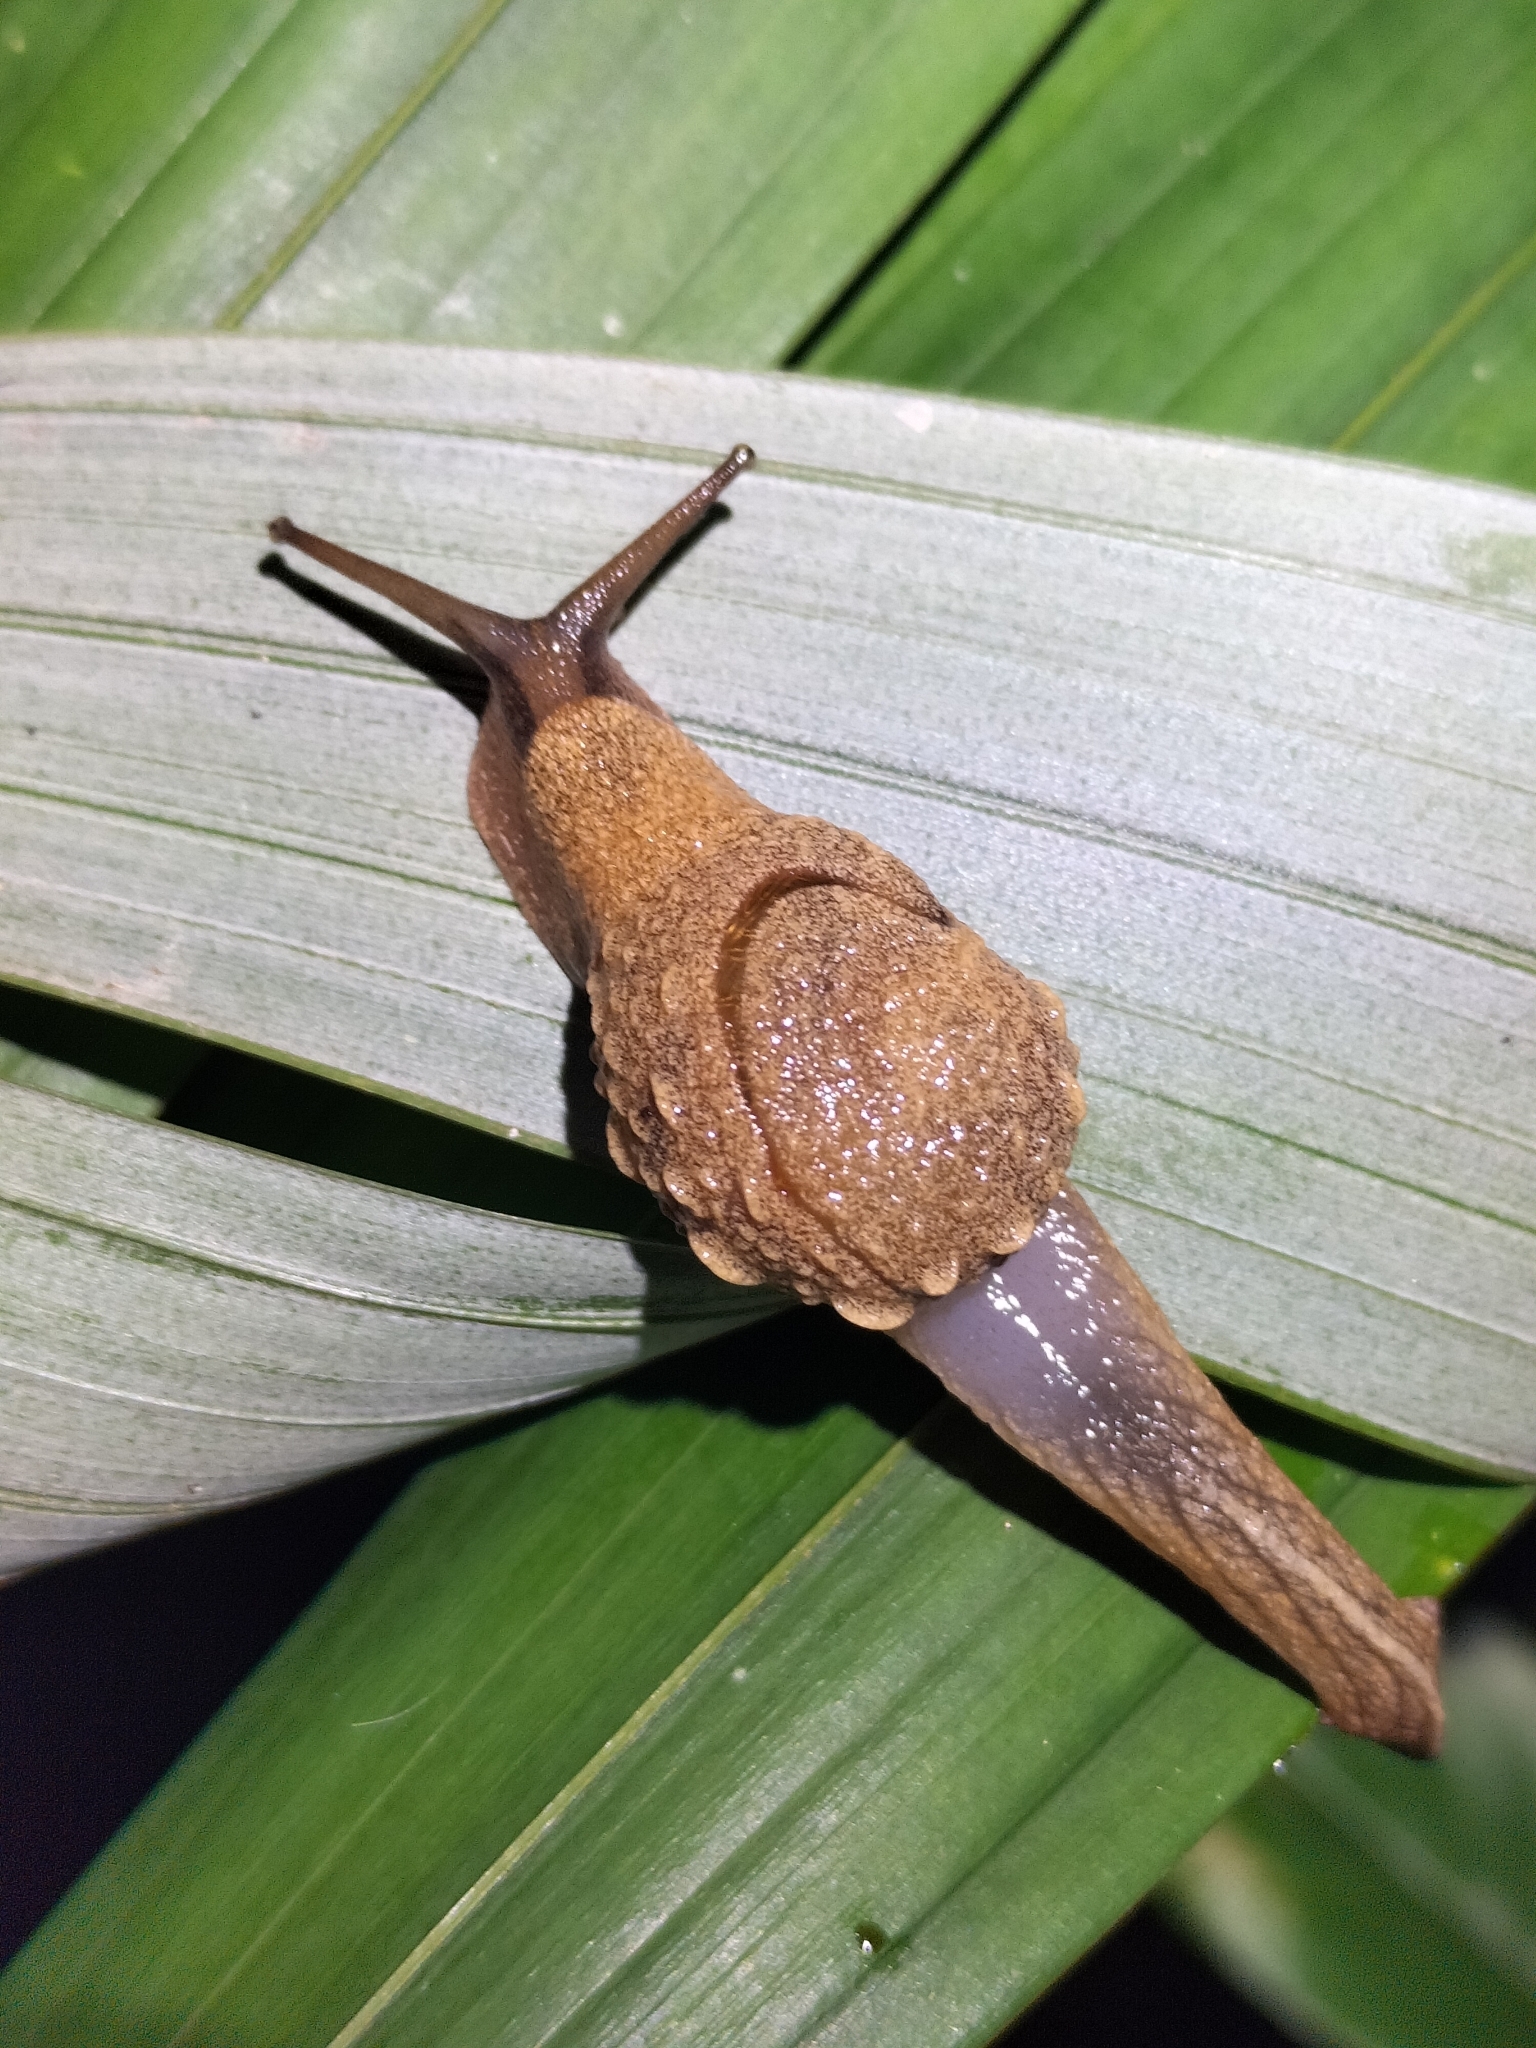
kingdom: Animalia
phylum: Mollusca
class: Gastropoda
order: Stylommatophora
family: Helicarionidae
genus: Fastosarion
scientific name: Fastosarion brazieri
